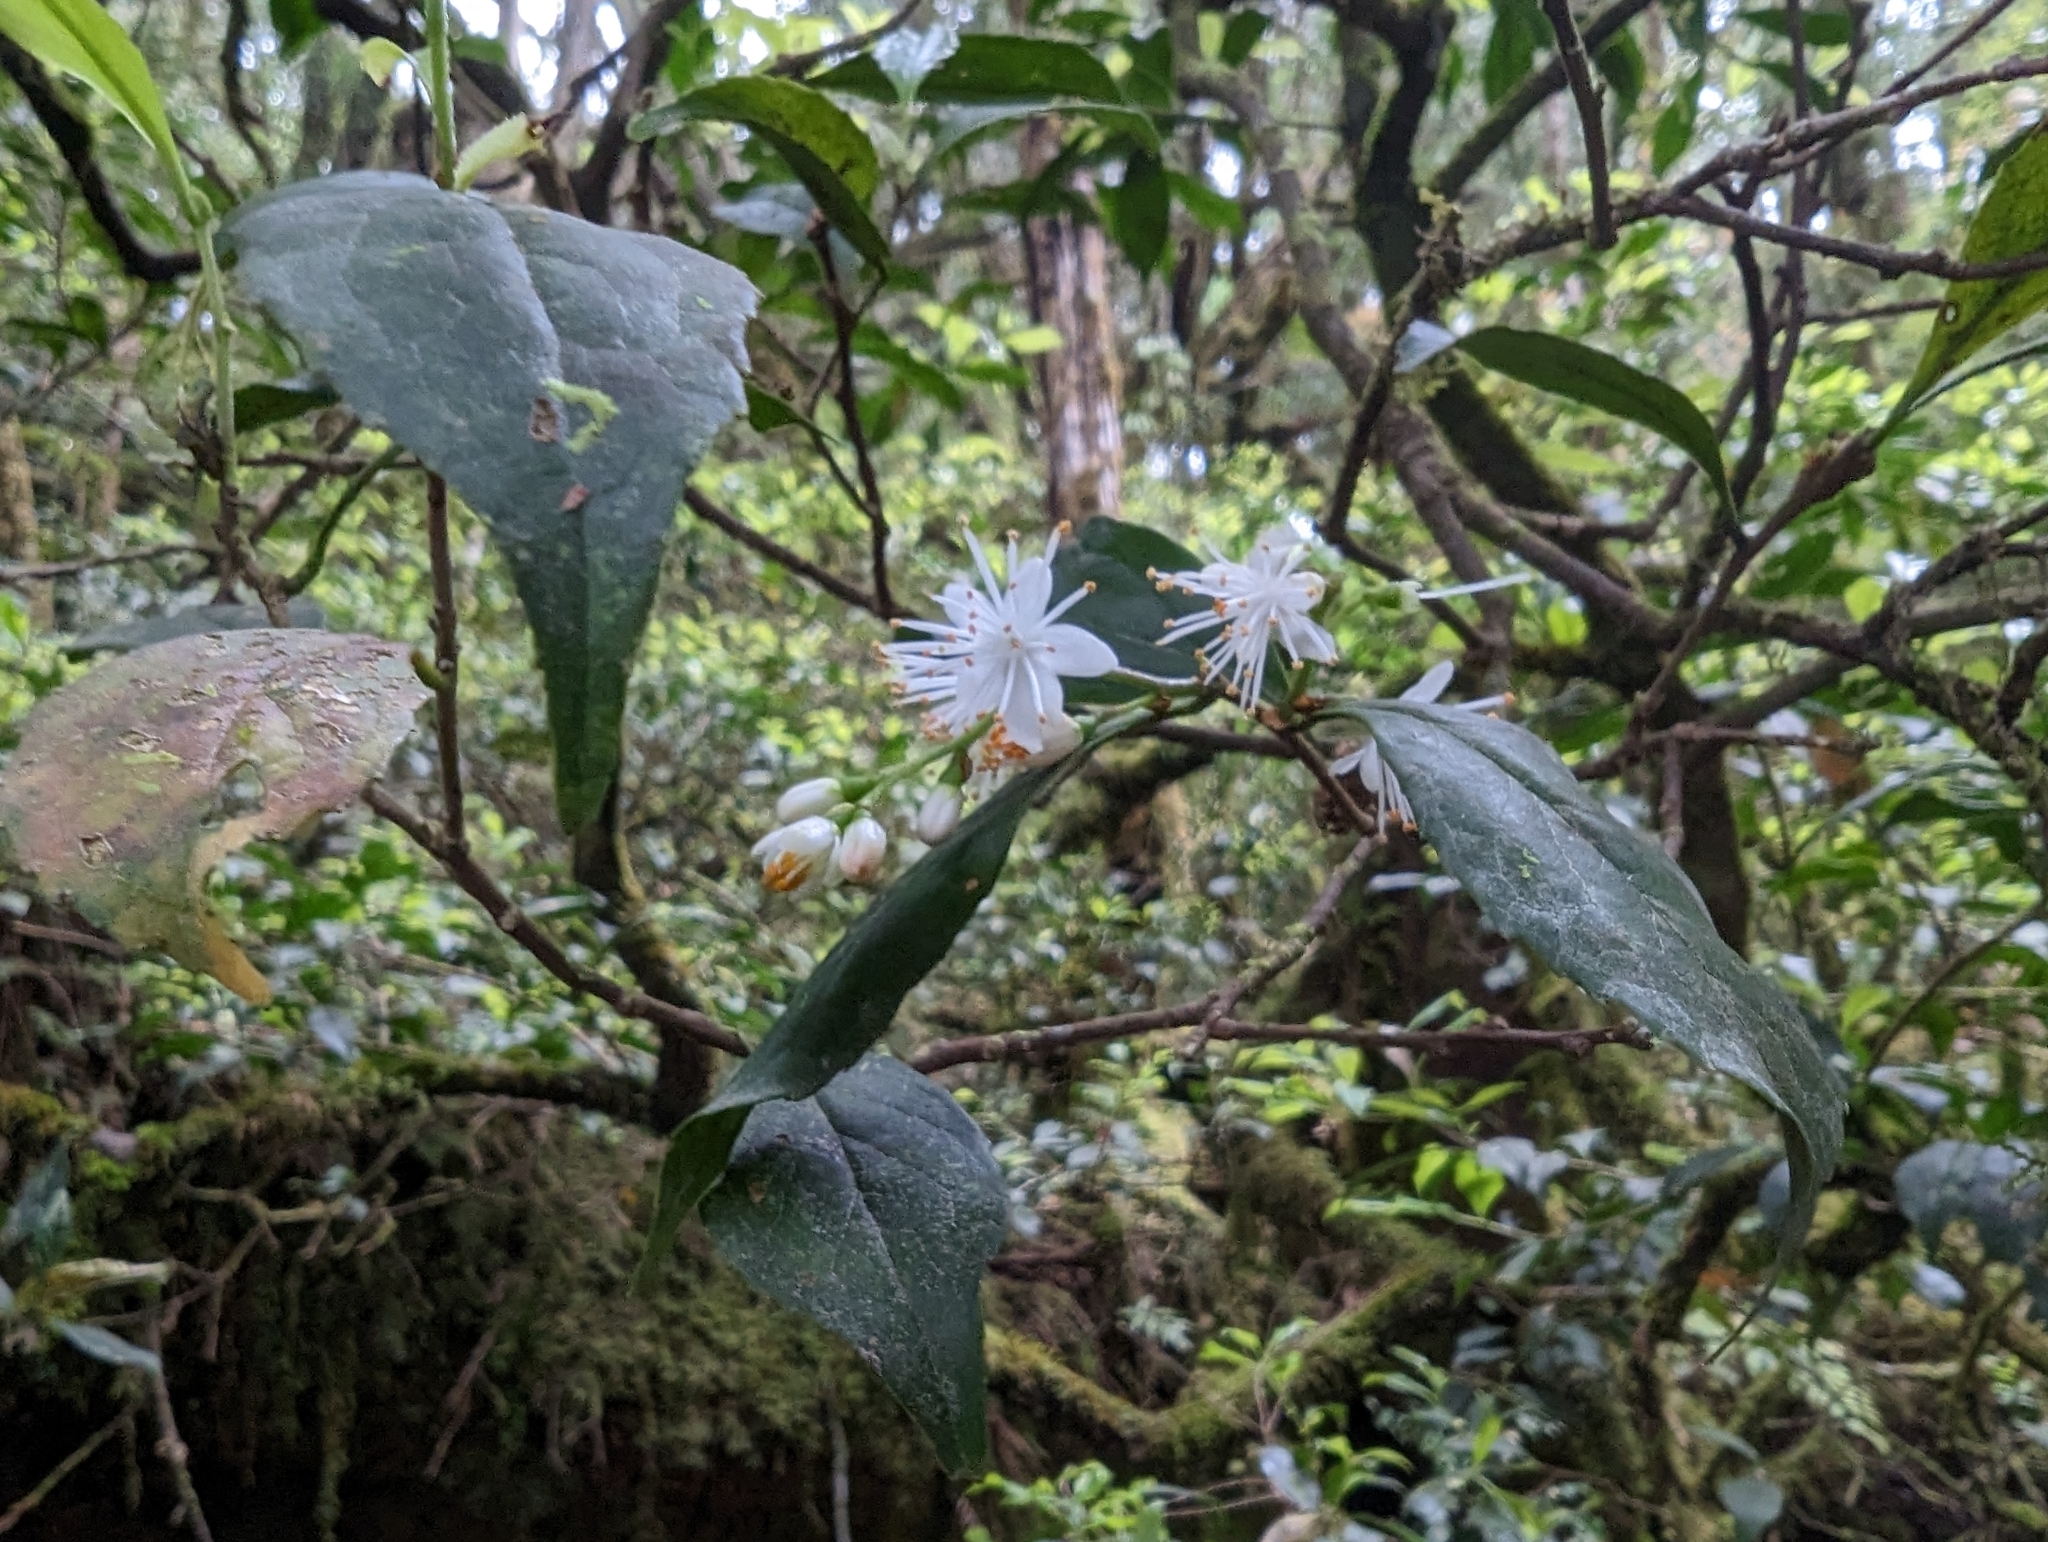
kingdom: Plantae
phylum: Tracheophyta
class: Magnoliopsida
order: Ericales
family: Symplocaceae
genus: Symplocos
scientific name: Symplocos sumuntia
